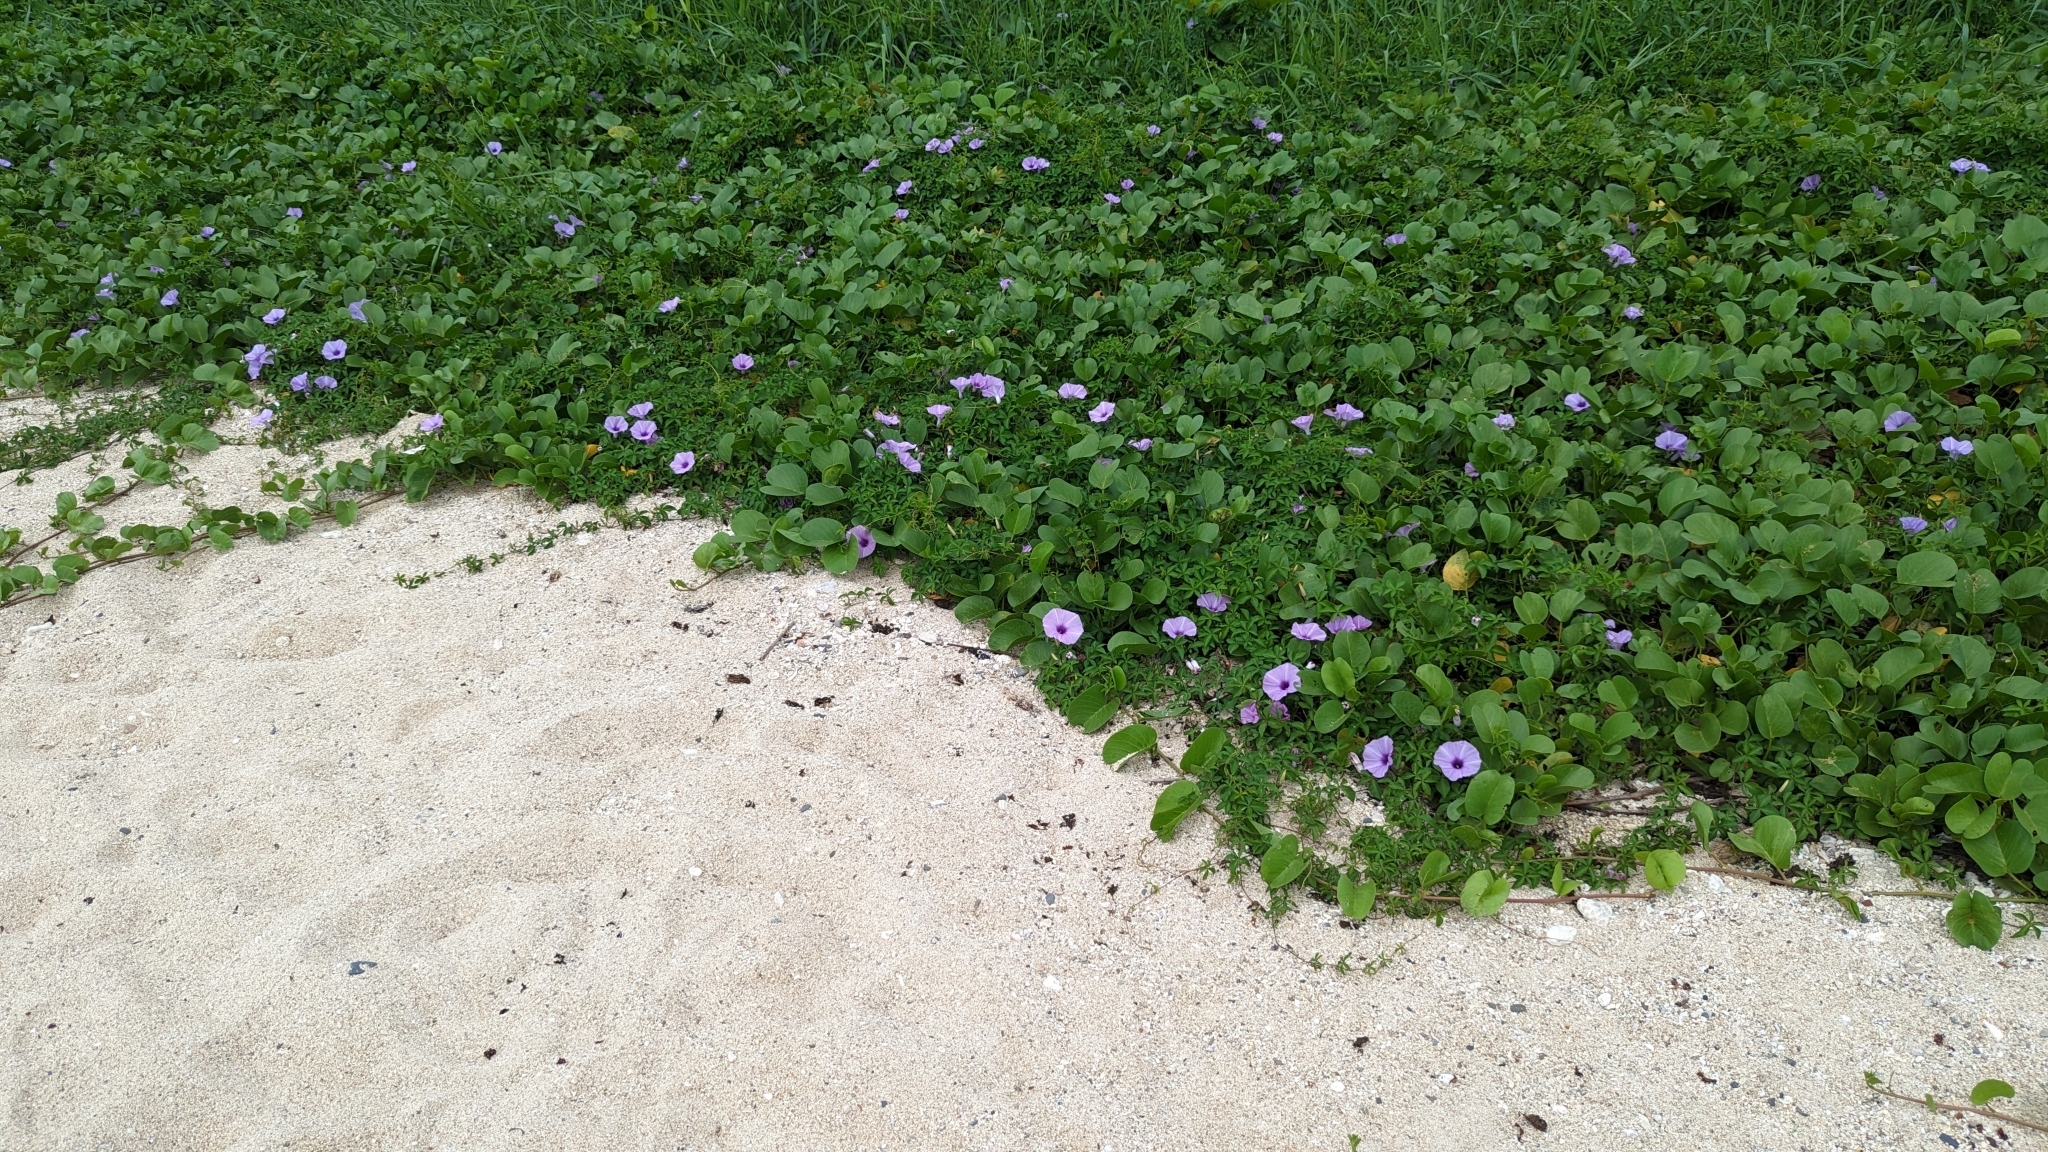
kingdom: Plantae
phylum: Tracheophyta
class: Magnoliopsida
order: Solanales
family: Convolvulaceae
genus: Ipomoea
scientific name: Ipomoea cairica
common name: Mile a minute vine
